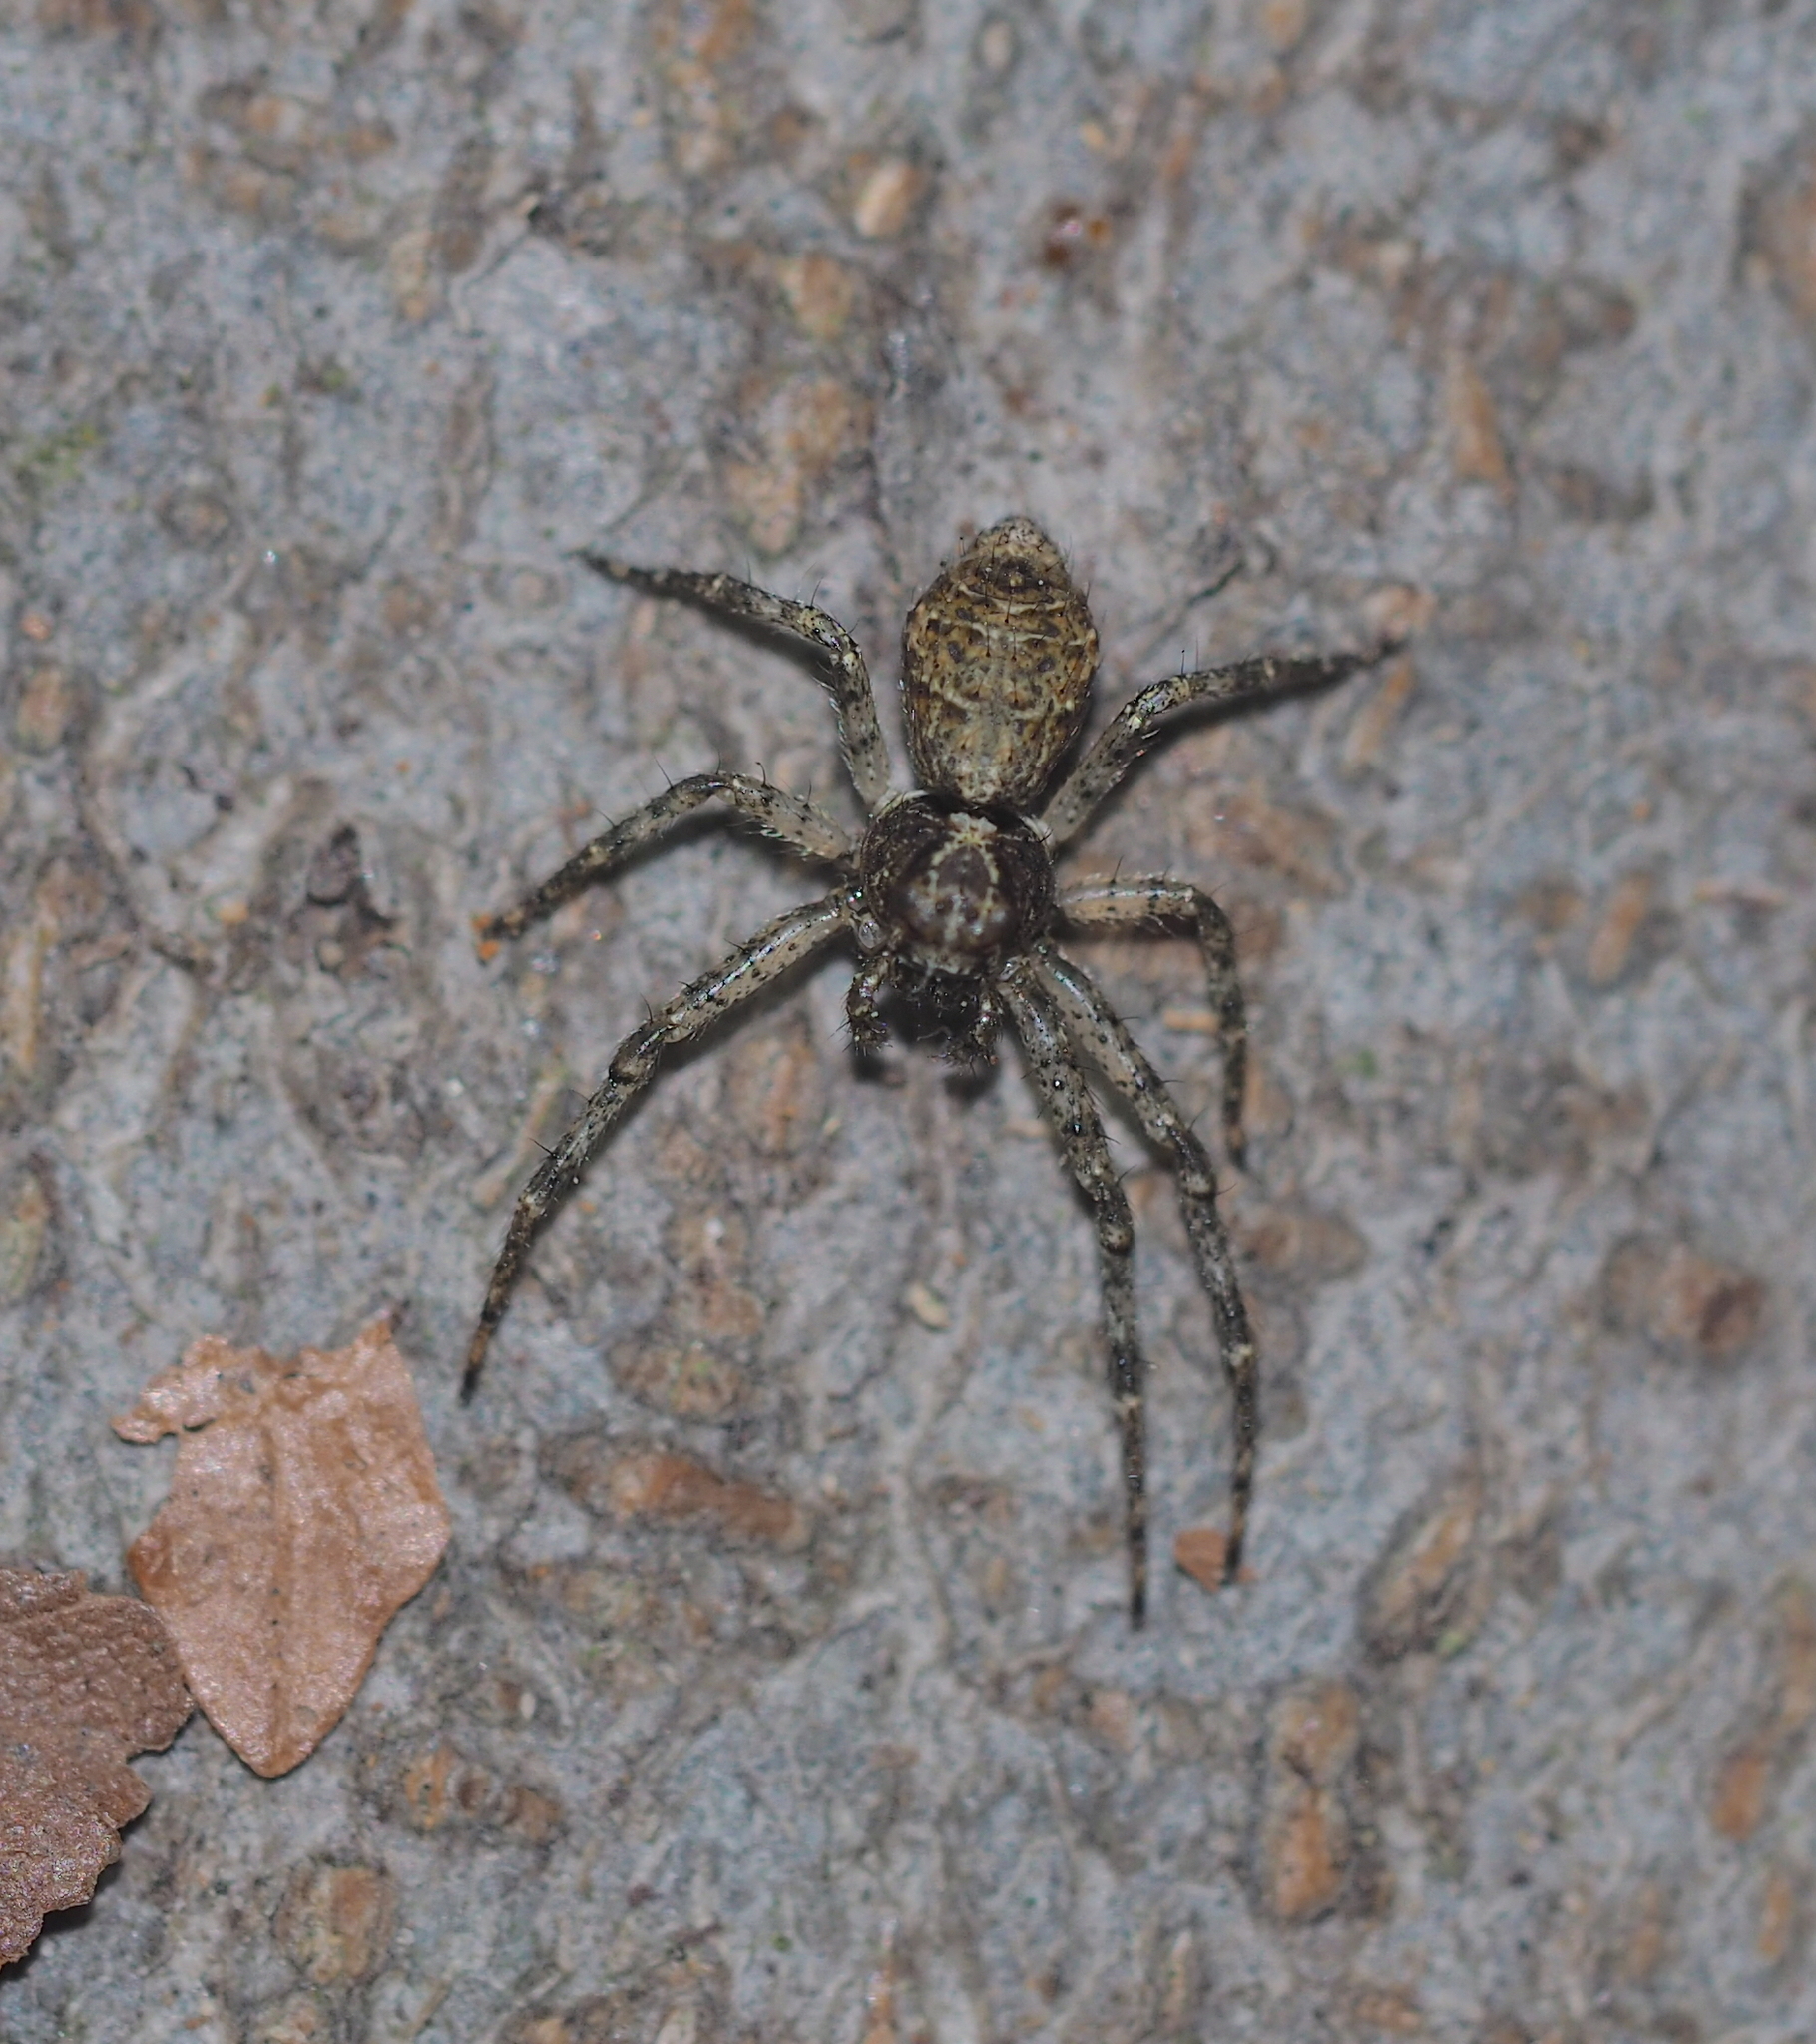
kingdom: Animalia
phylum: Arthropoda
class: Arachnida
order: Araneae
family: Thomisidae
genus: Tmarus
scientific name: Tmarus piger
